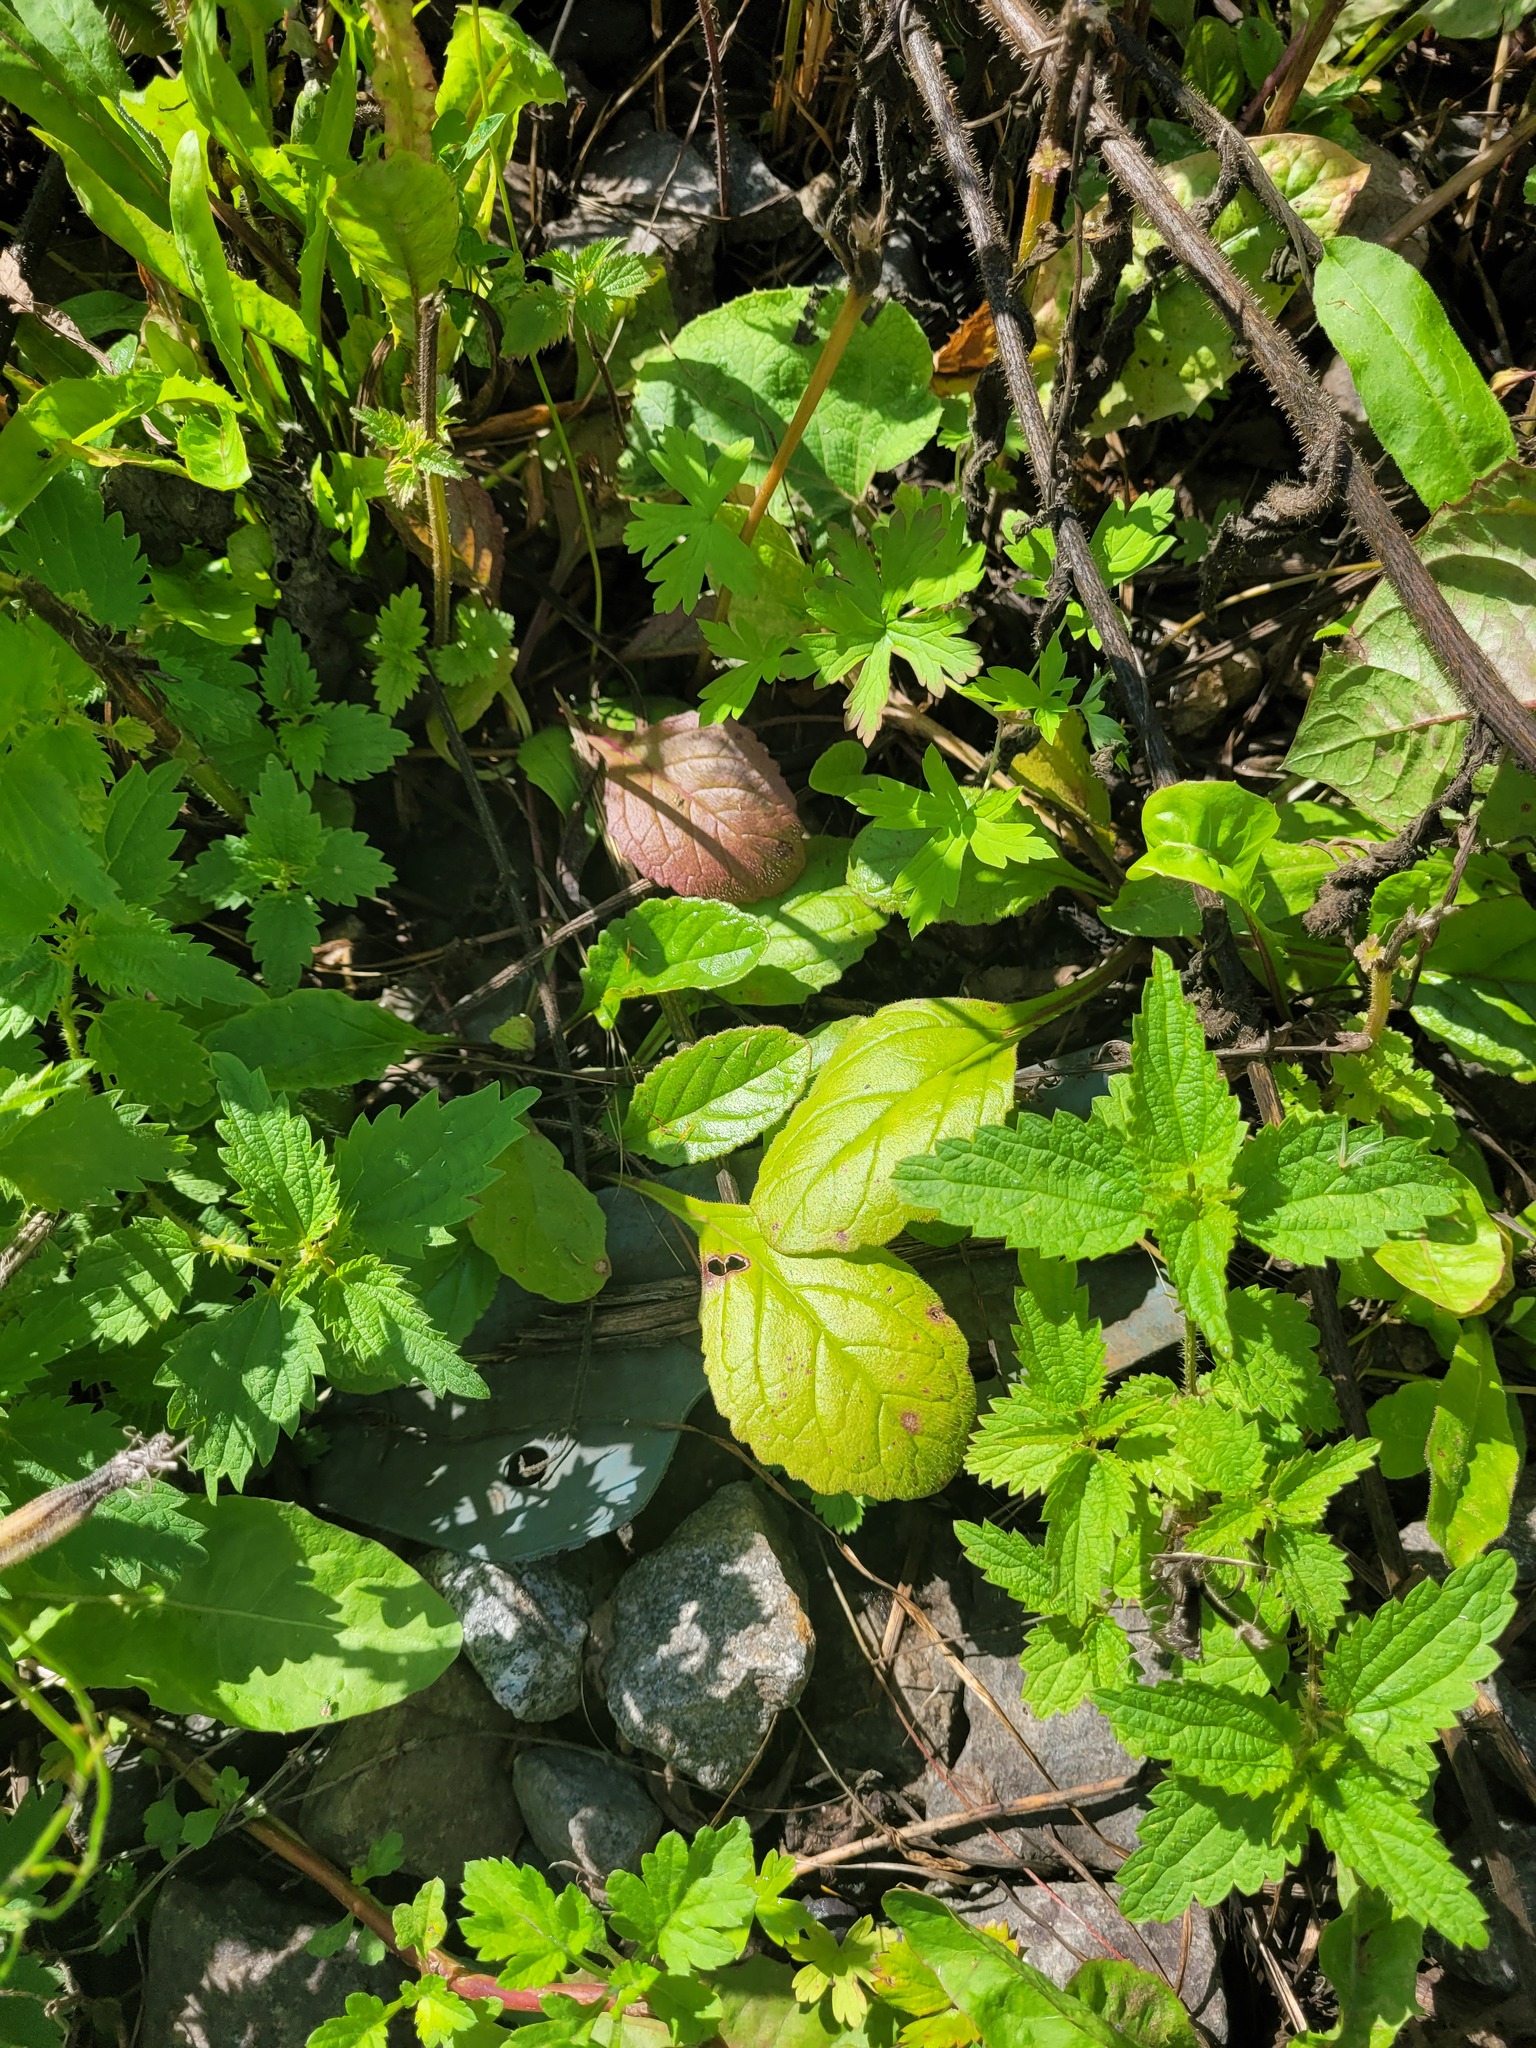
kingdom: Plantae
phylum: Tracheophyta
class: Magnoliopsida
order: Lamiales
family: Lamiaceae
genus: Ajuga
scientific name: Ajuga reptans
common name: Bugle
